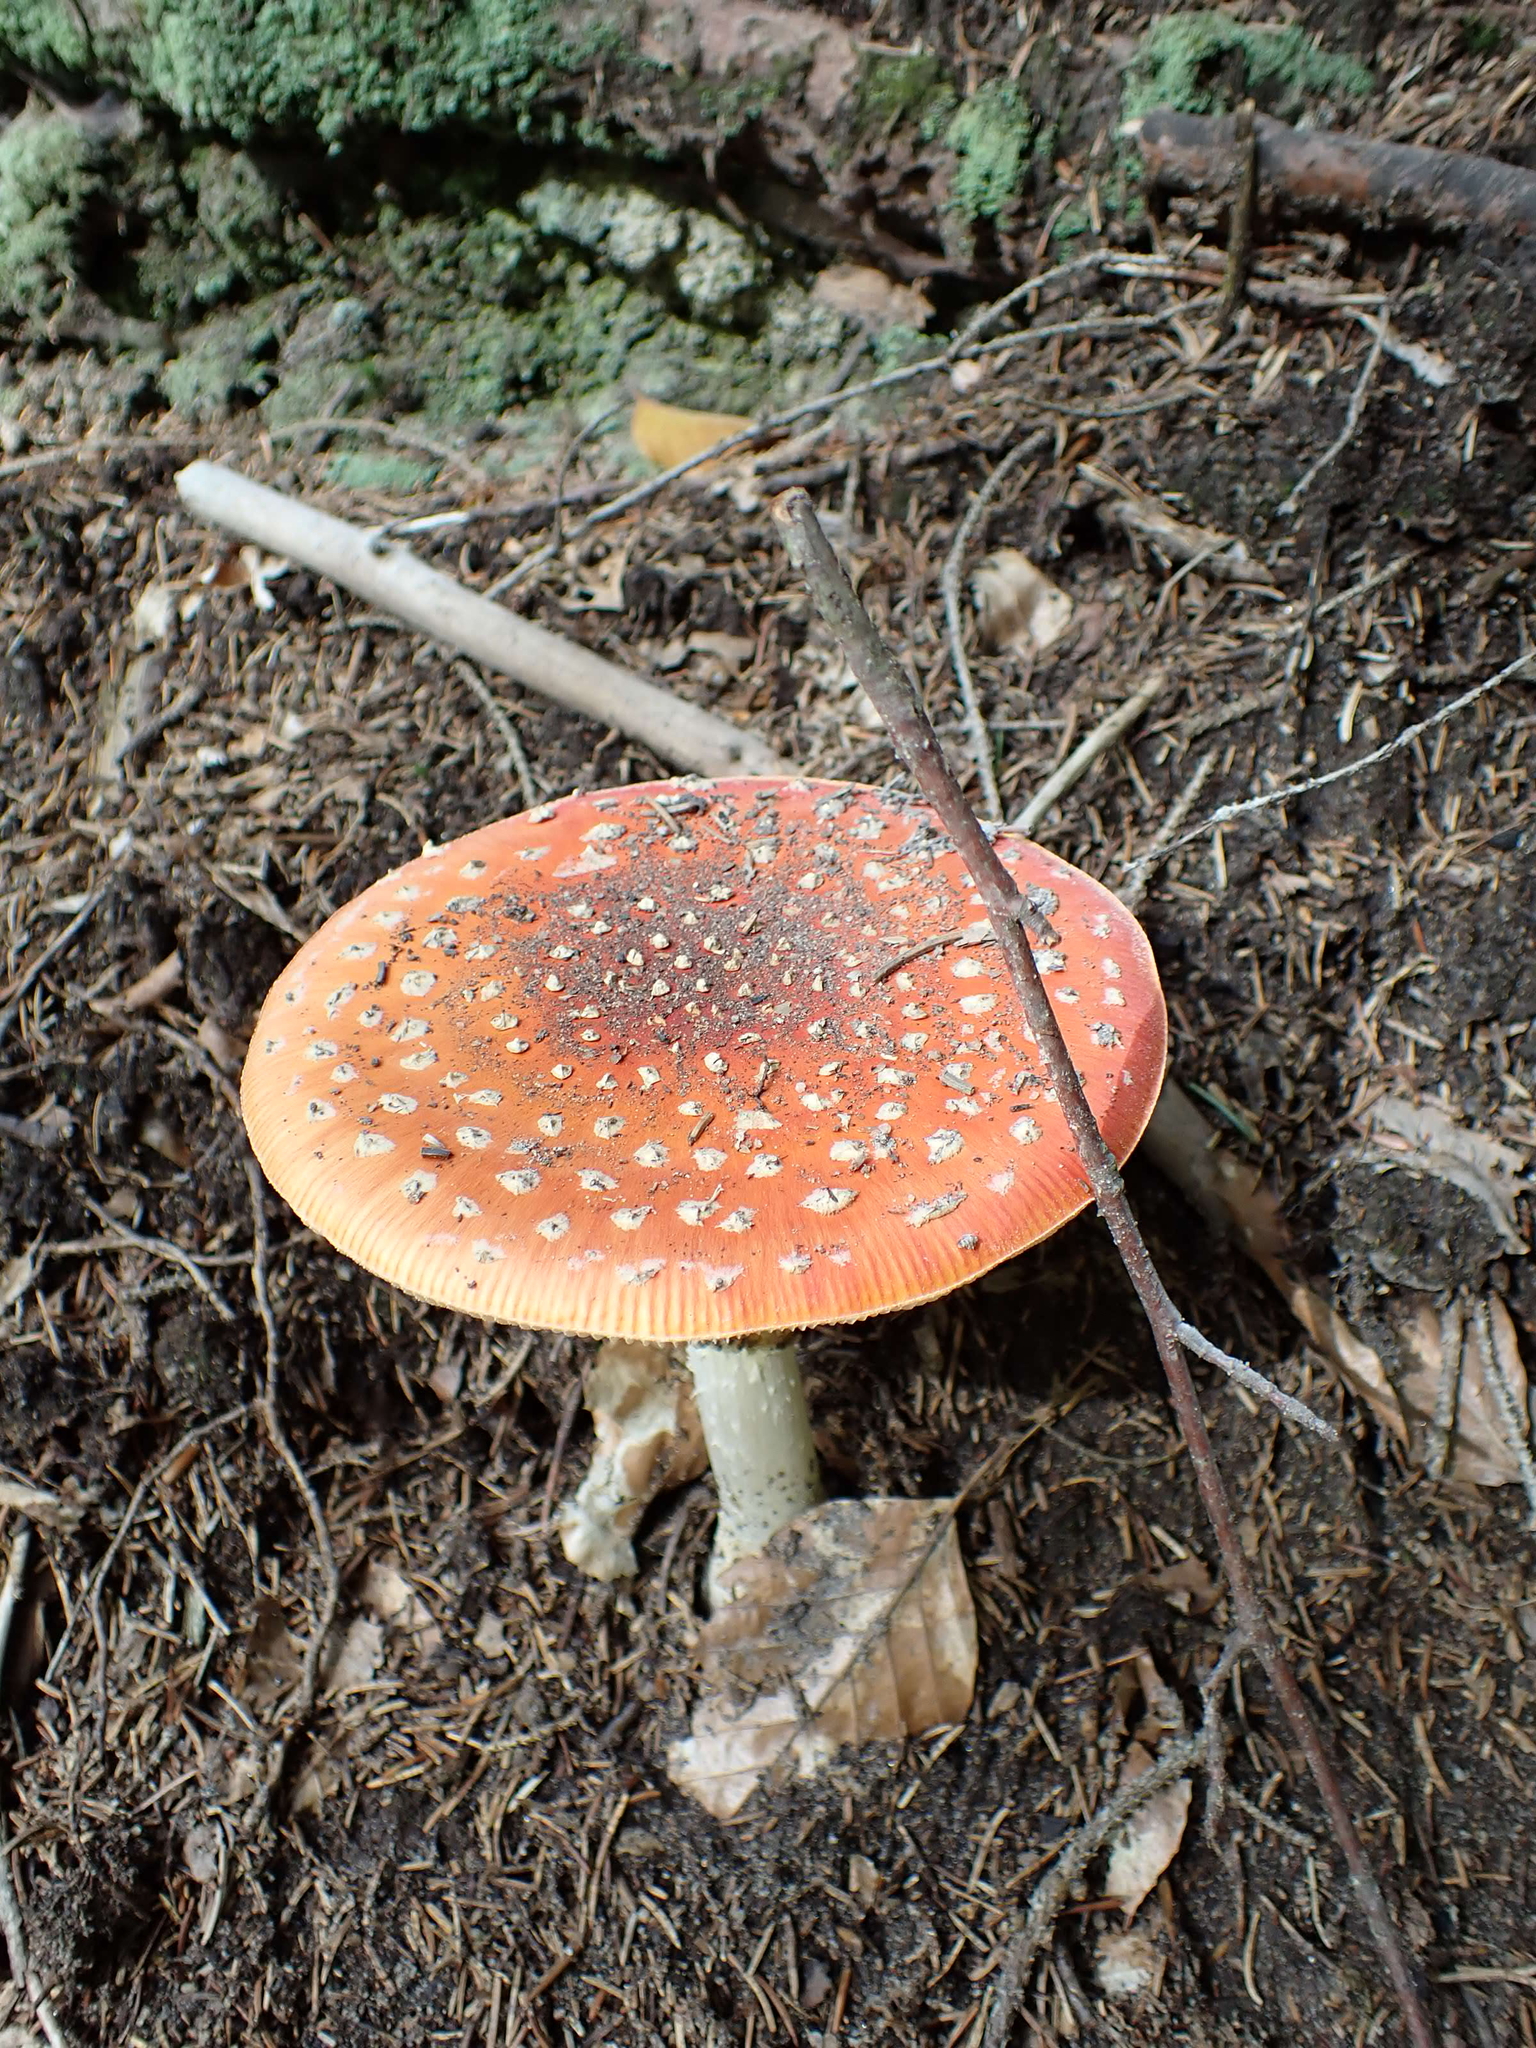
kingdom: Fungi
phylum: Basidiomycota
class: Agaricomycetes
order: Agaricales
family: Amanitaceae
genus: Amanita
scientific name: Amanita muscaria
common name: Fly agaric
